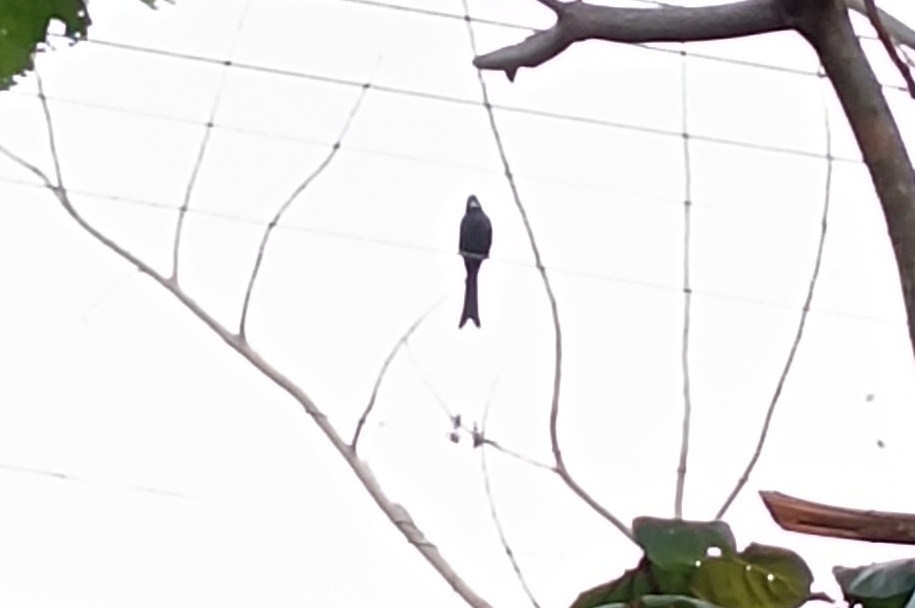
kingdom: Animalia
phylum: Chordata
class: Aves
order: Passeriformes
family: Dicruridae
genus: Dicrurus
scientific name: Dicrurus paradiseus
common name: Greater racket-tailed drongo
